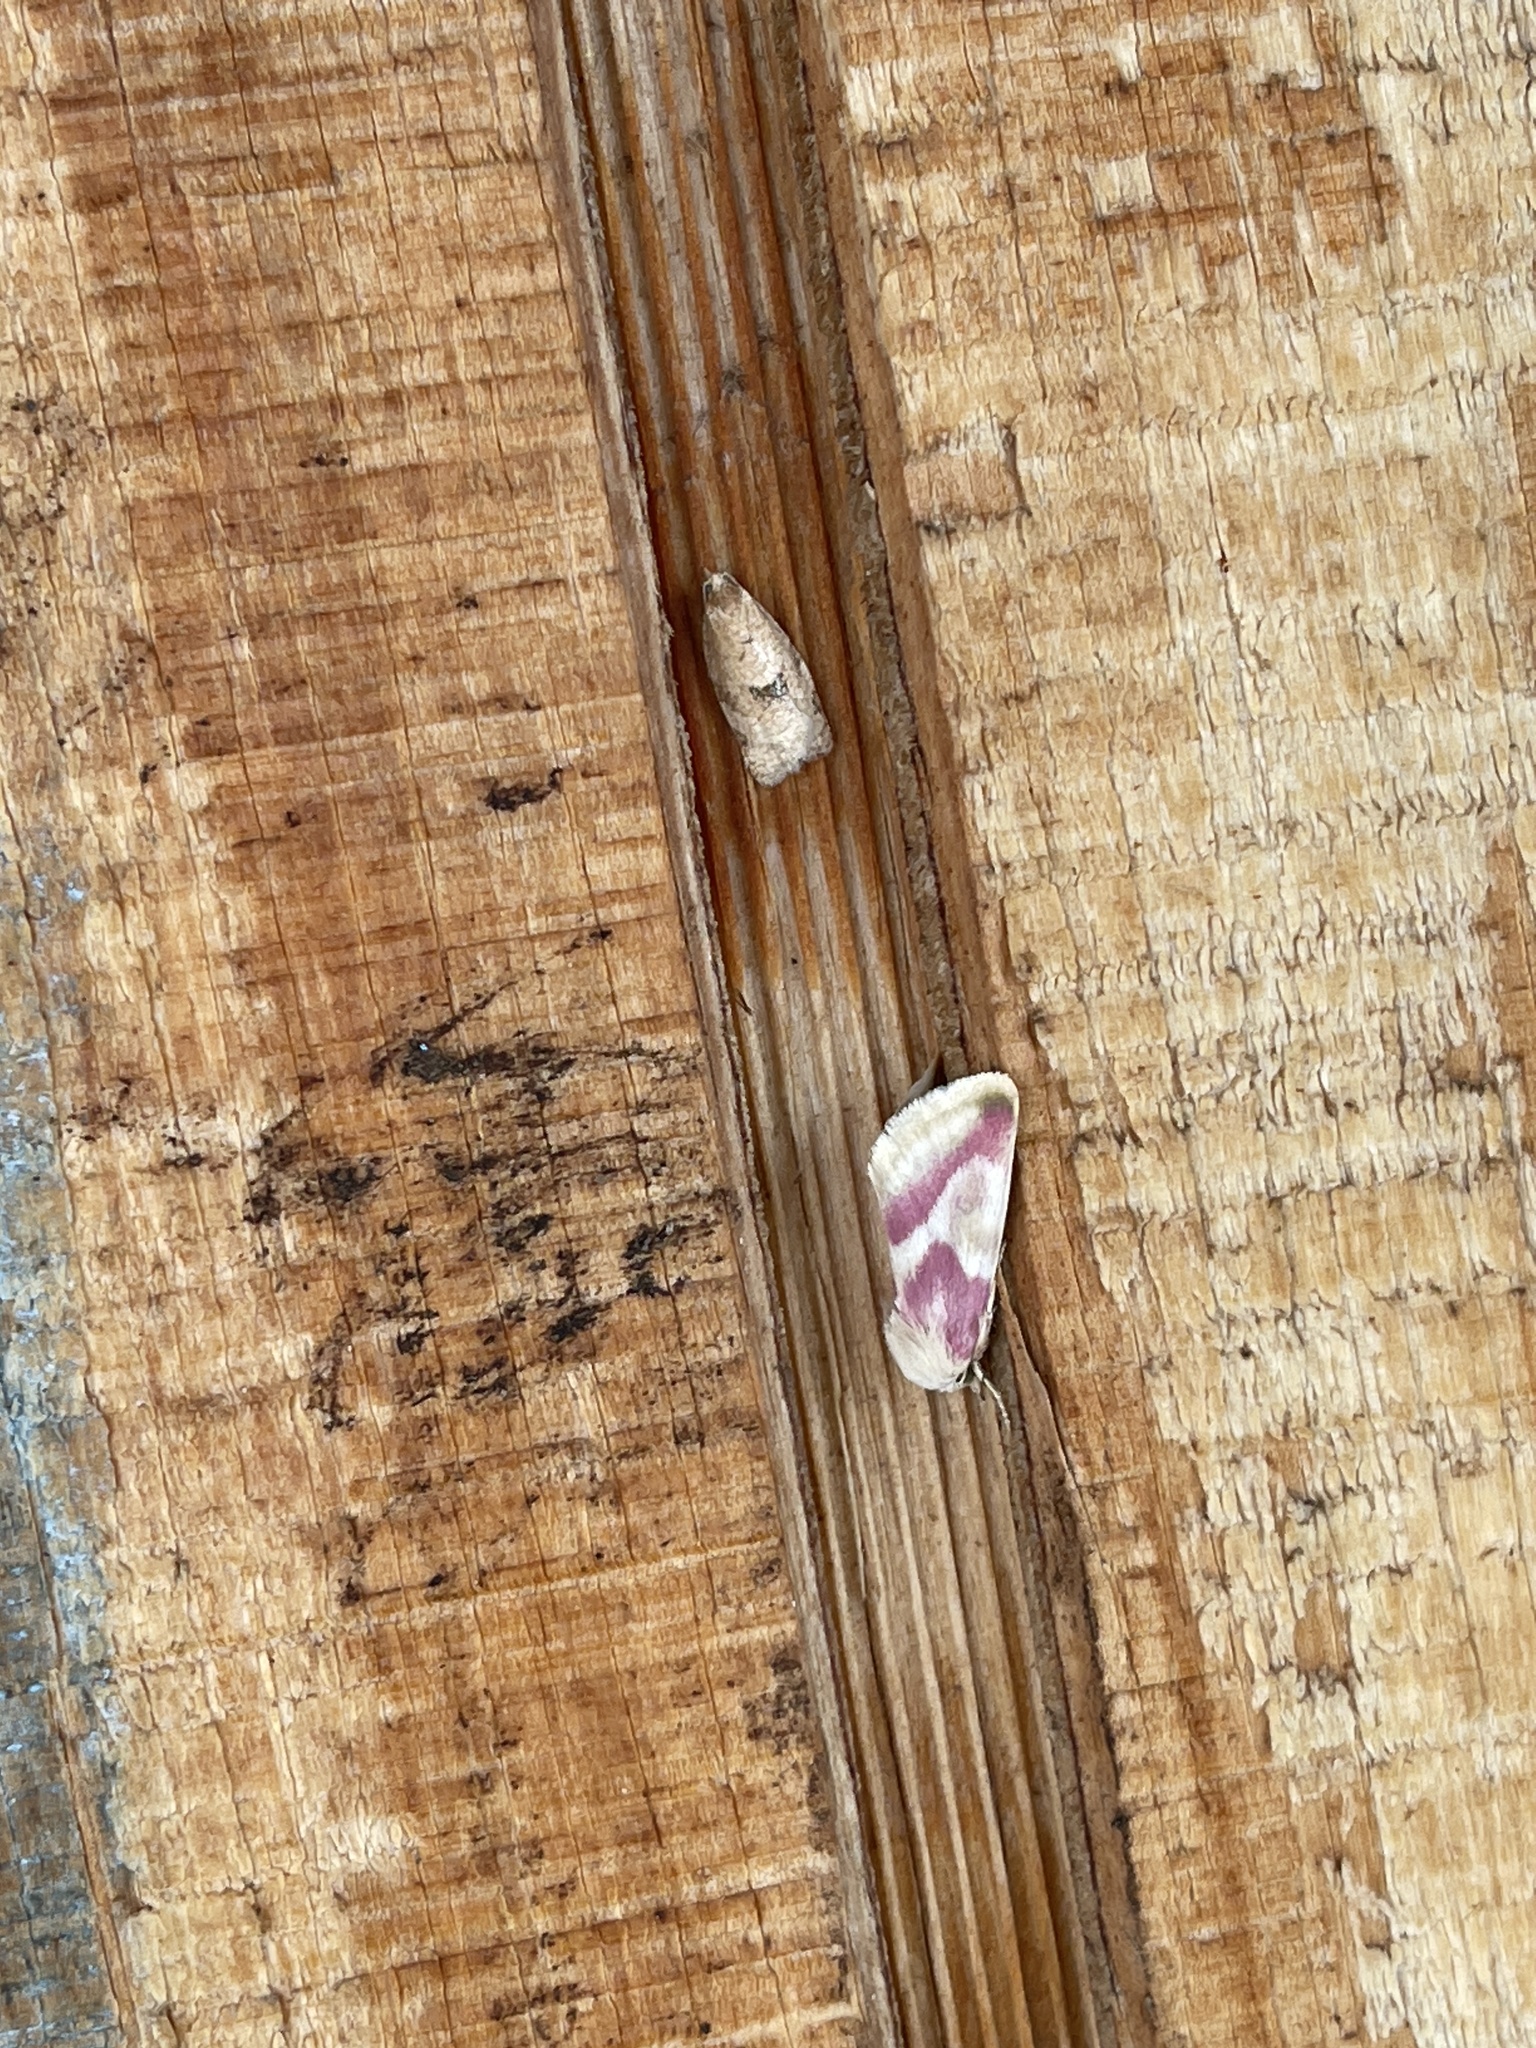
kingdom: Animalia
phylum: Arthropoda
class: Insecta
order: Lepidoptera
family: Noctuidae
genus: Schinia
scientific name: Schinia regina
